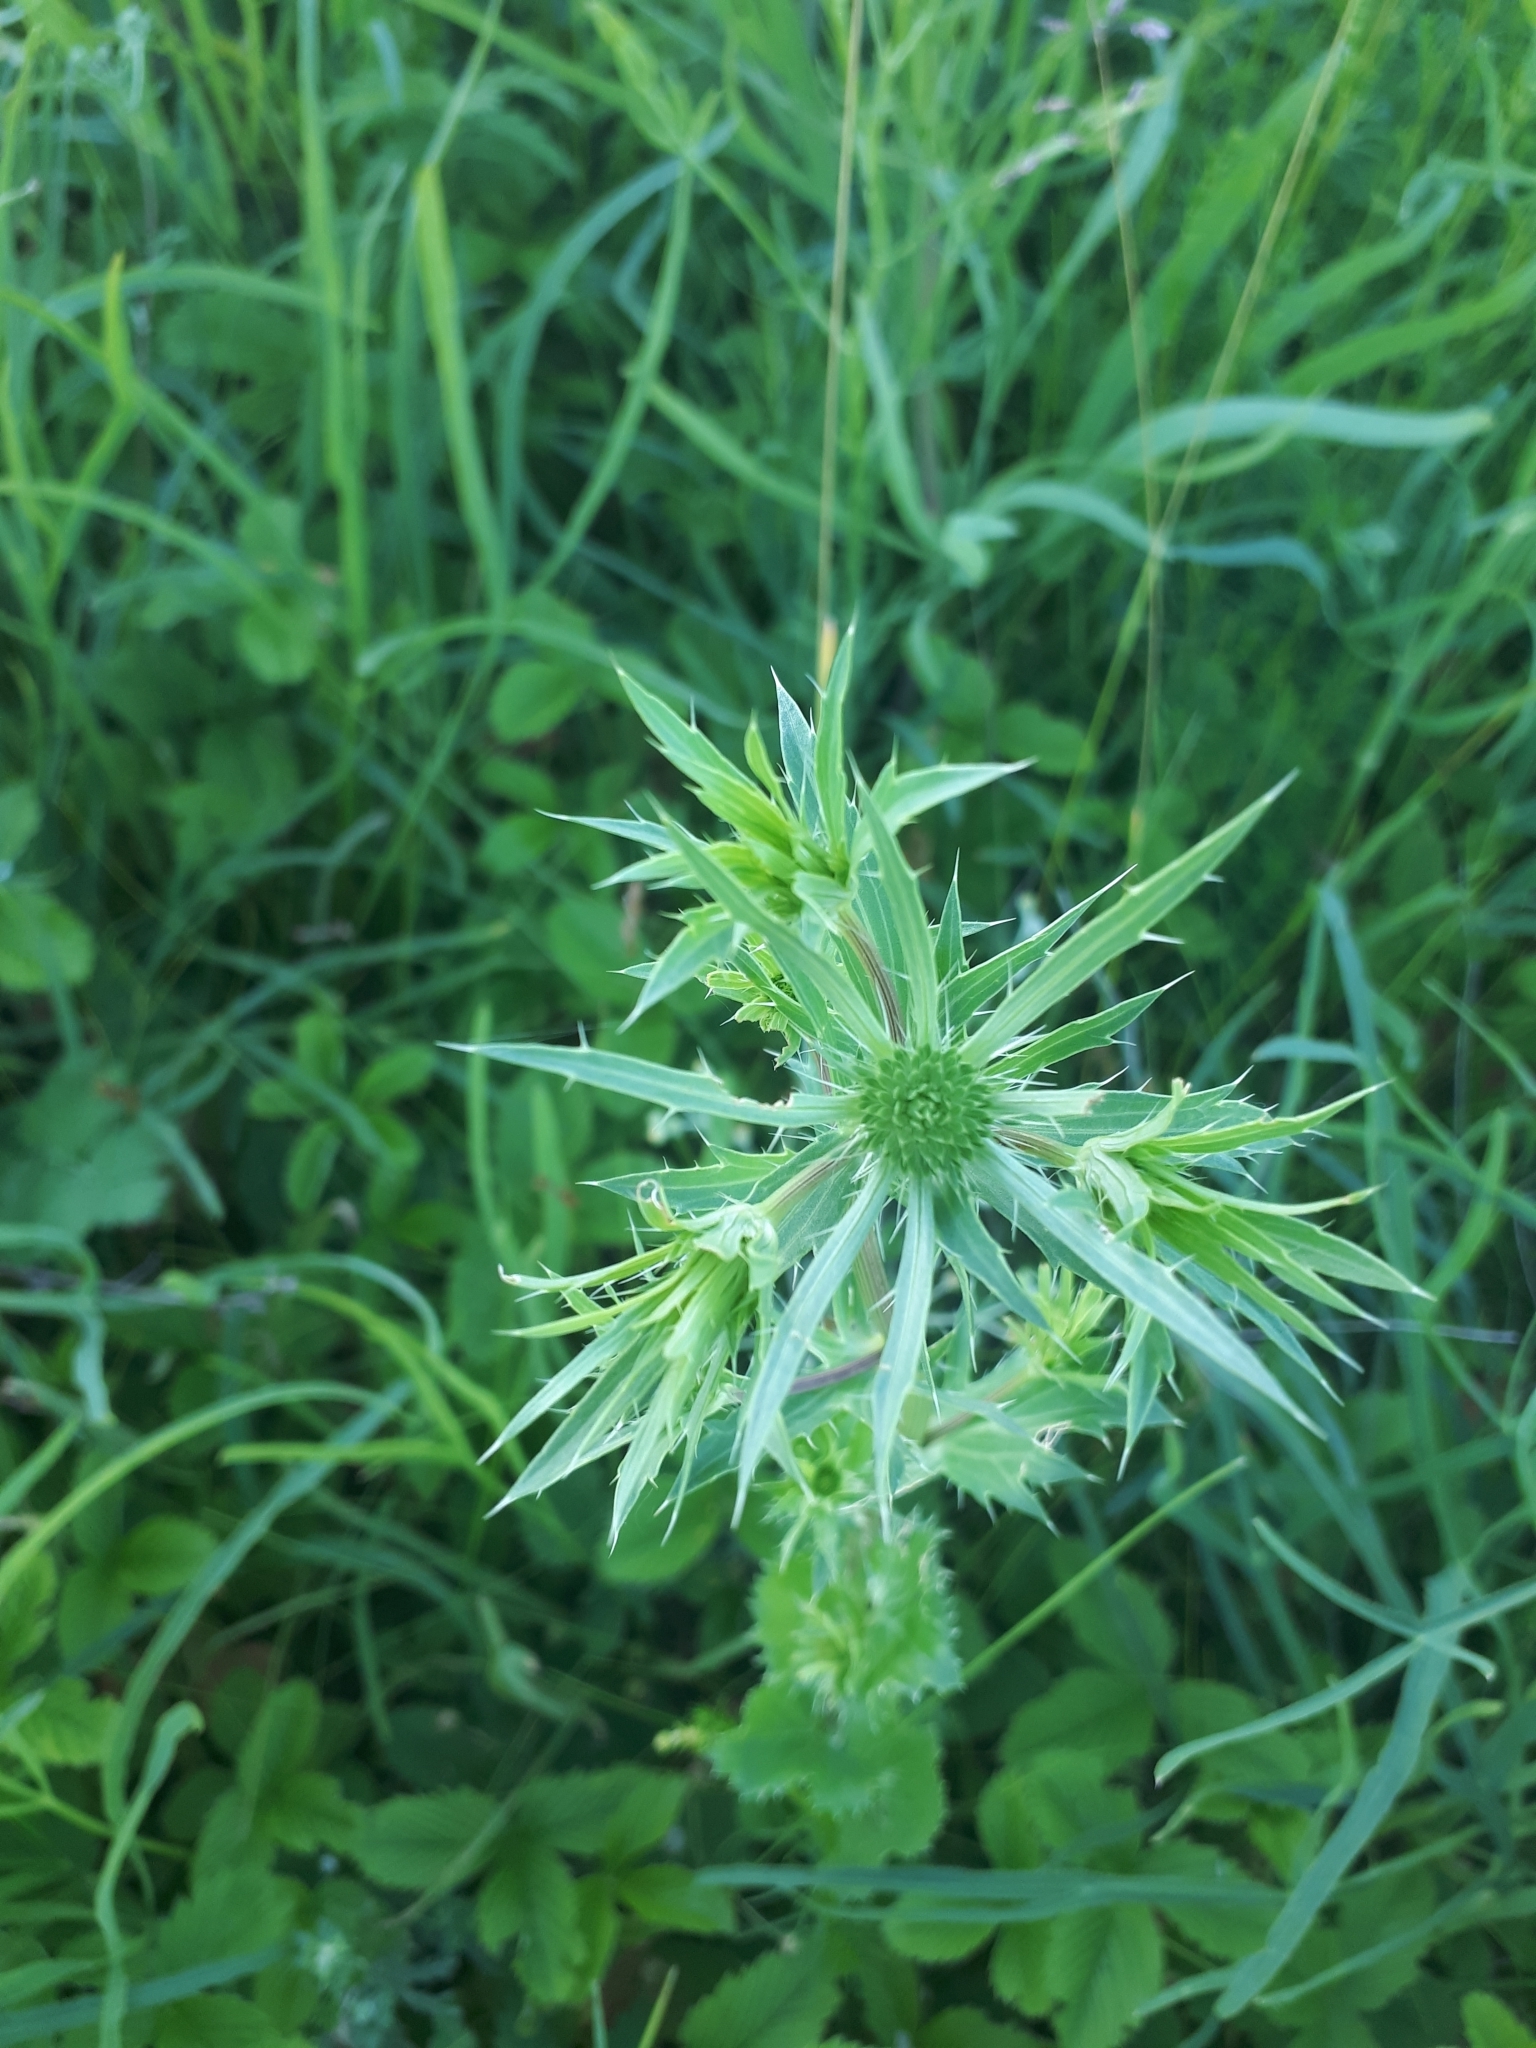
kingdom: Plantae
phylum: Tracheophyta
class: Magnoliopsida
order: Apiales
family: Apiaceae
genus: Eryngium
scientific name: Eryngium planum
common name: Blue eryngo
